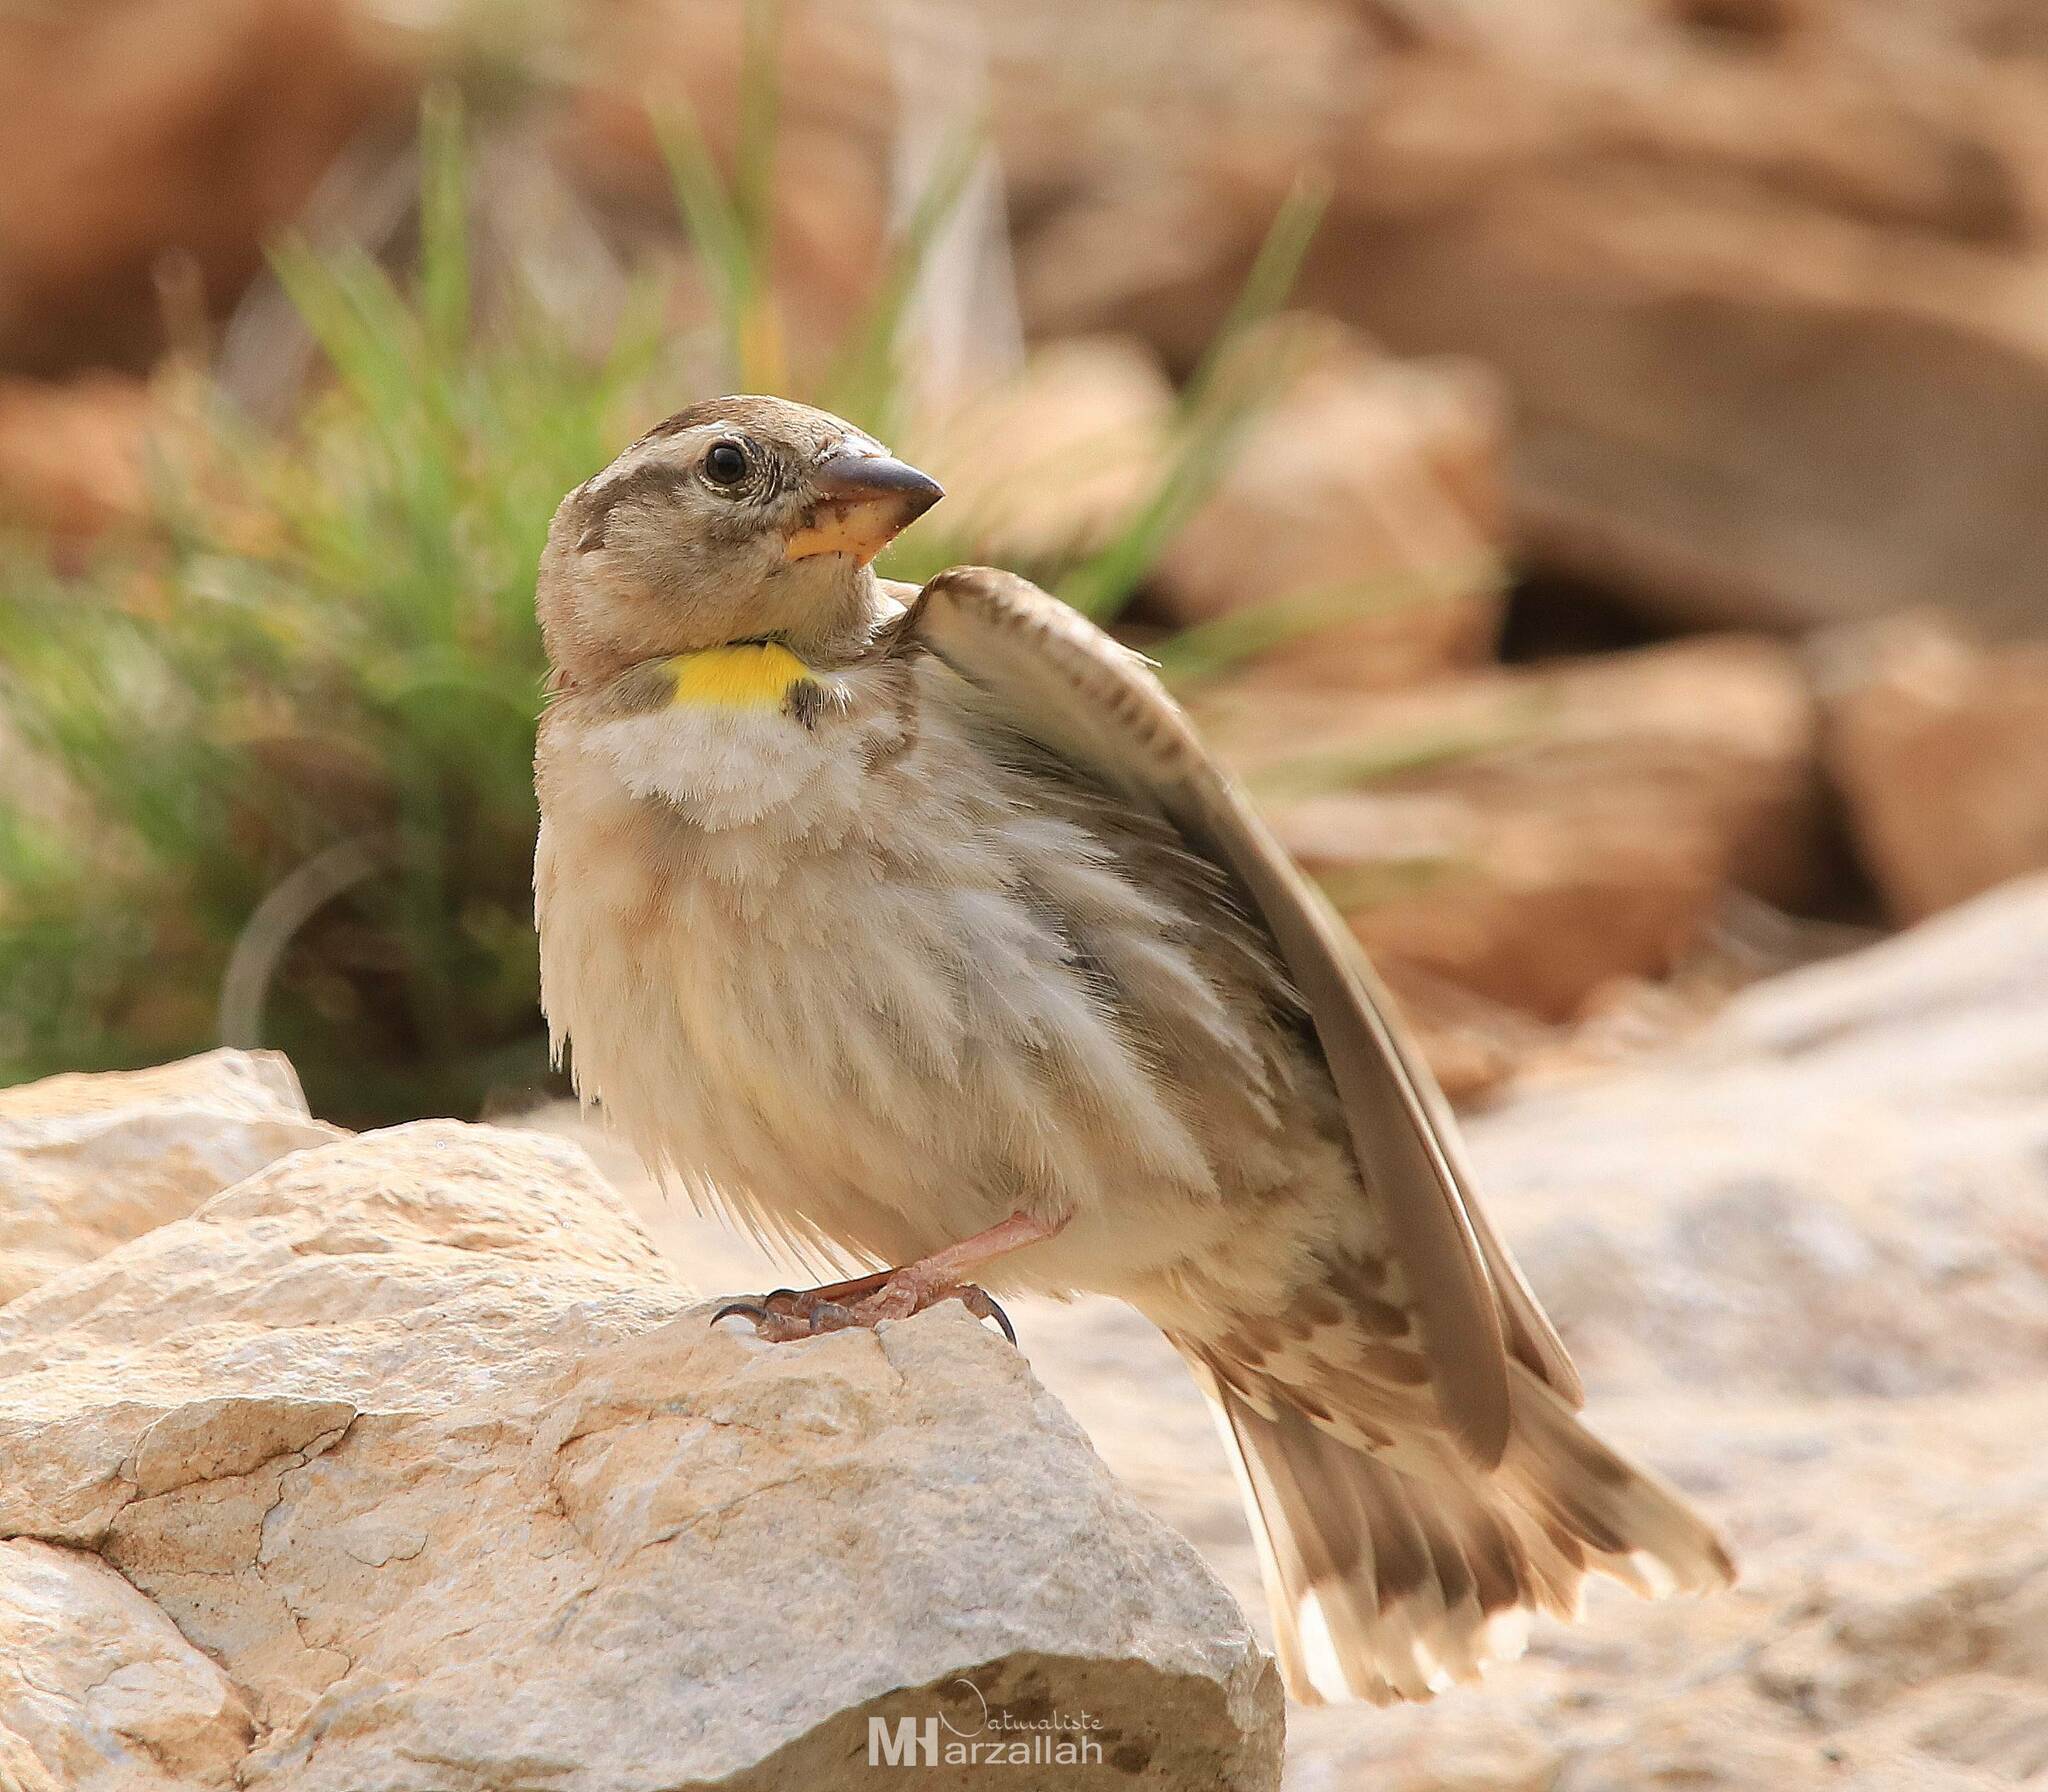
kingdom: Animalia
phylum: Chordata
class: Aves
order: Passeriformes
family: Passeridae
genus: Petronia
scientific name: Petronia petronia
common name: Rock sparrow
